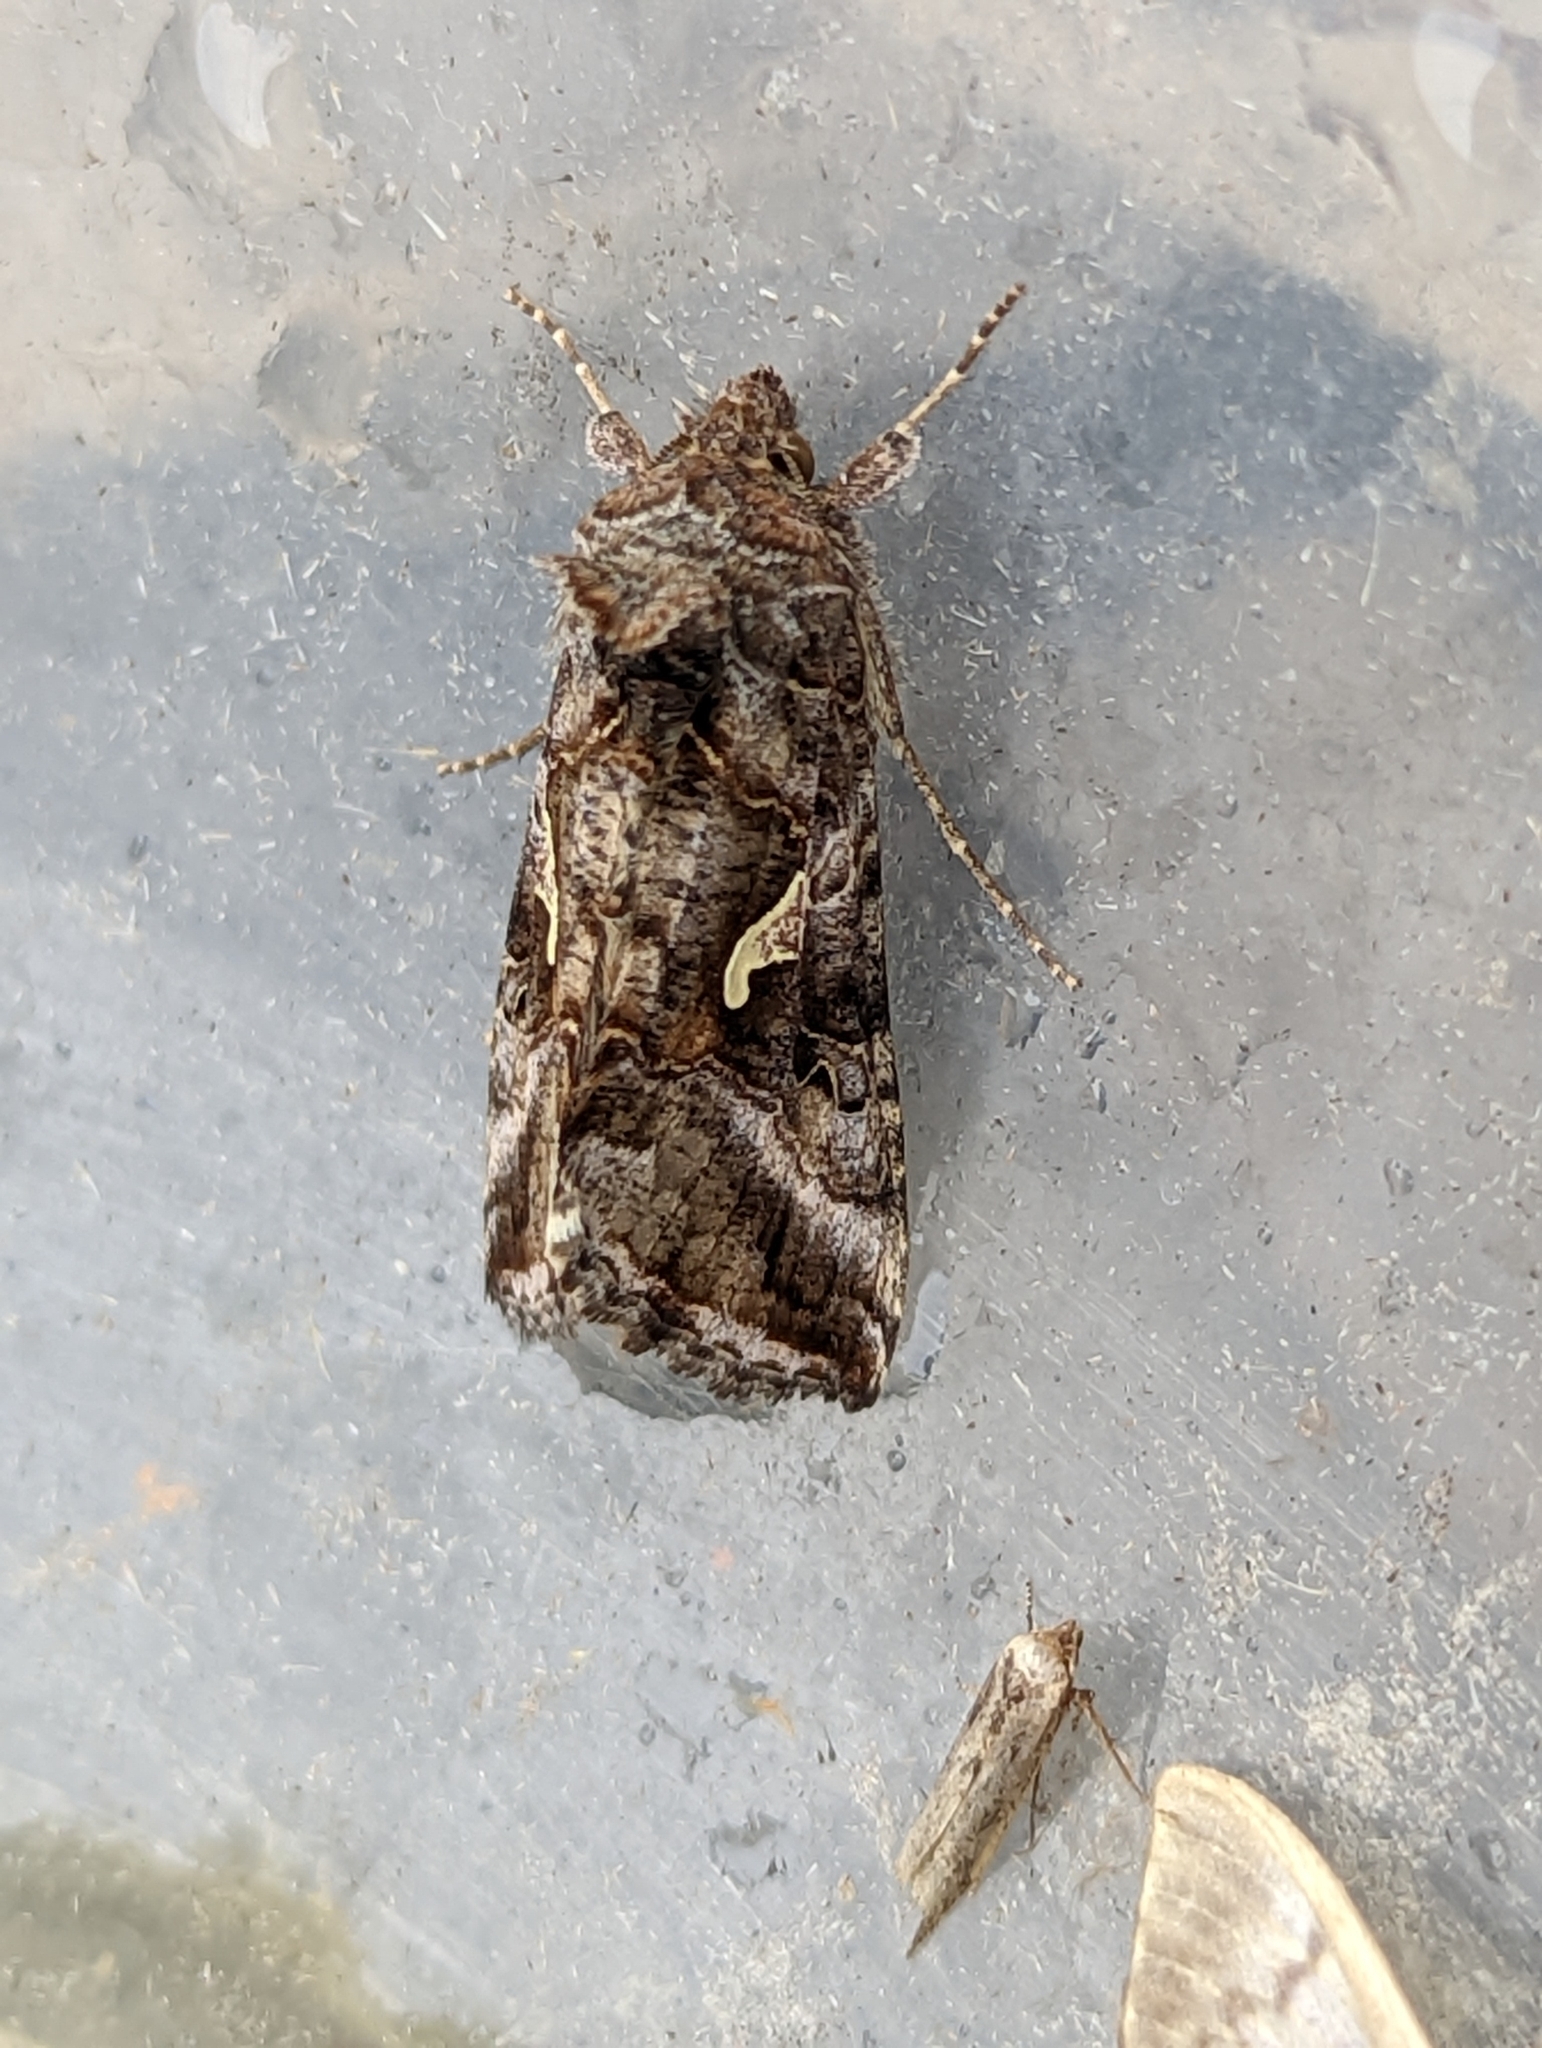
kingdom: Animalia
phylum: Arthropoda
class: Insecta
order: Lepidoptera
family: Noctuidae
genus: Autographa
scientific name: Autographa gamma
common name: Silver y
